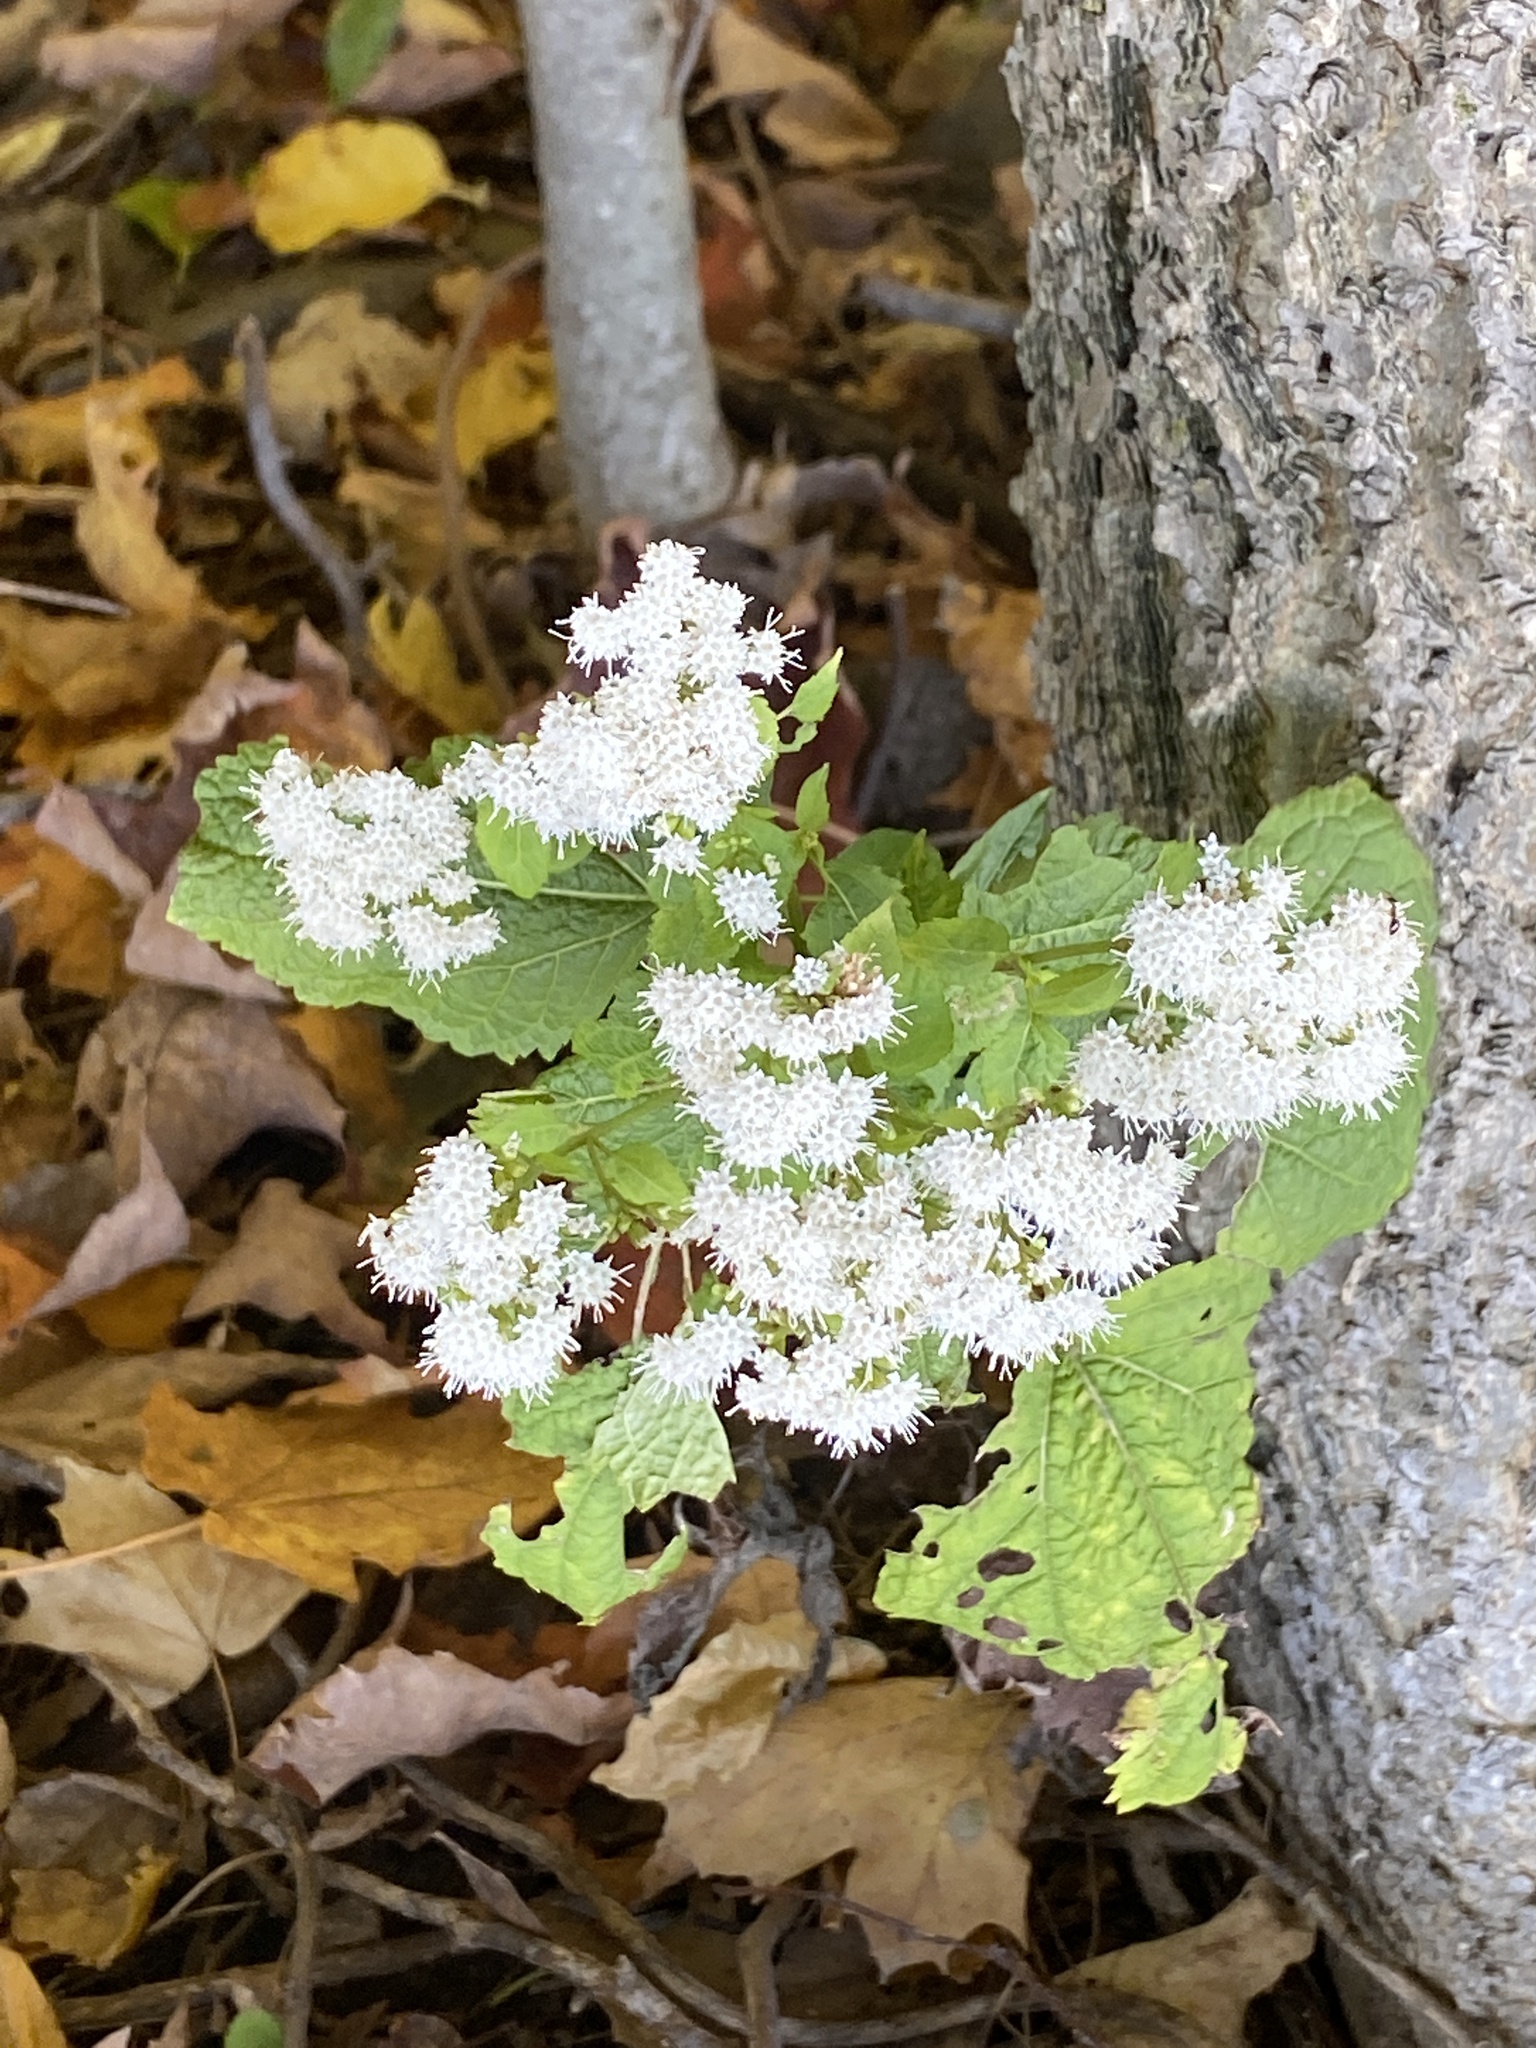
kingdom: Plantae
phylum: Tracheophyta
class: Magnoliopsida
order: Asterales
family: Asteraceae
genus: Ageratina
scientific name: Ageratina altissima
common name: White snakeroot
